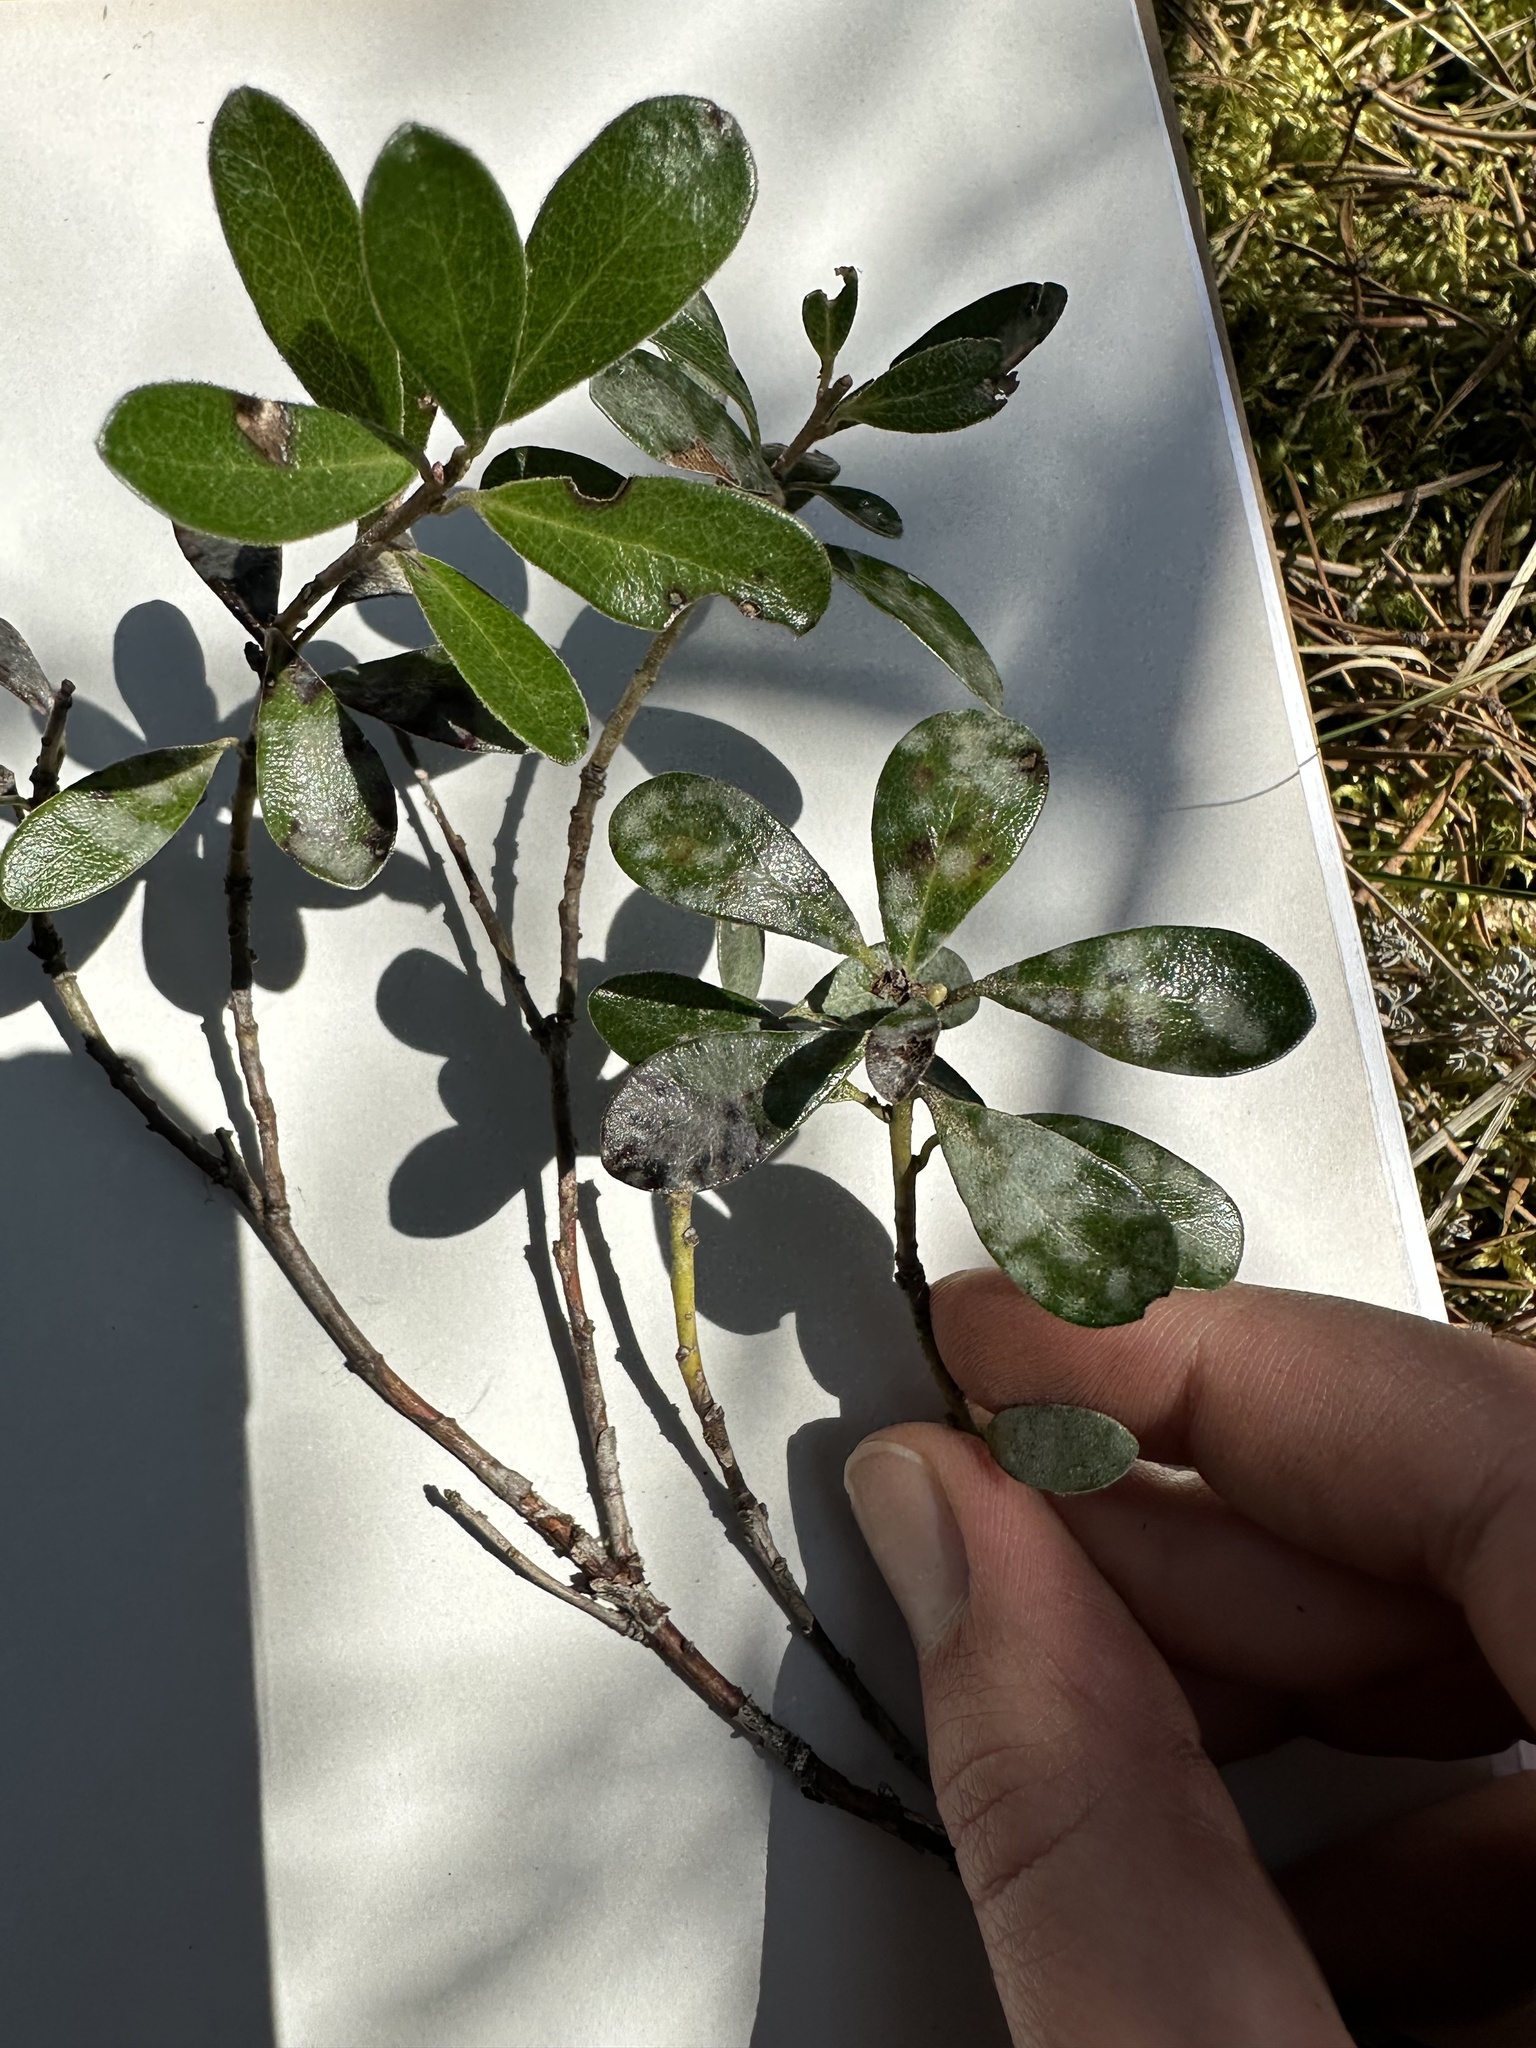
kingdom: Plantae
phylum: Tracheophyta
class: Magnoliopsida
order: Ericales
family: Ericaceae
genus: Arctostaphylos
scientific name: Arctostaphylos uva-ursi
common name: Bearberry
